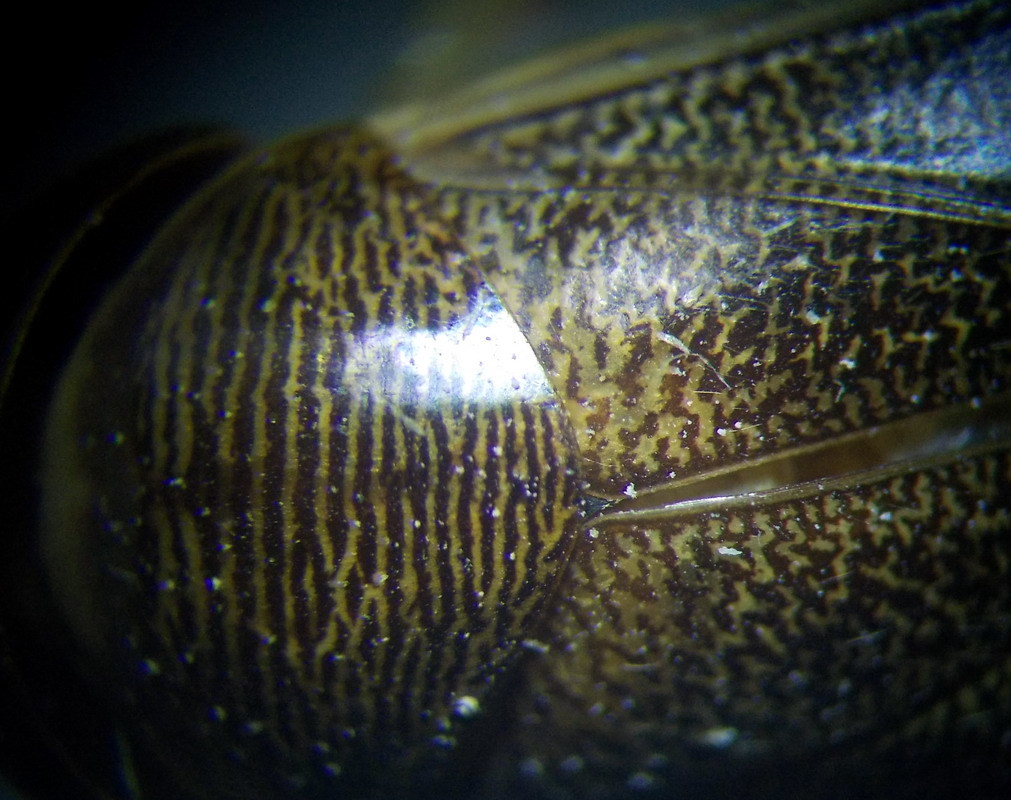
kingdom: Animalia
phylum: Arthropoda
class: Insecta
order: Hemiptera
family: Corixidae
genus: Corixa
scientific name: Corixa punctata
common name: Punctate corixa
